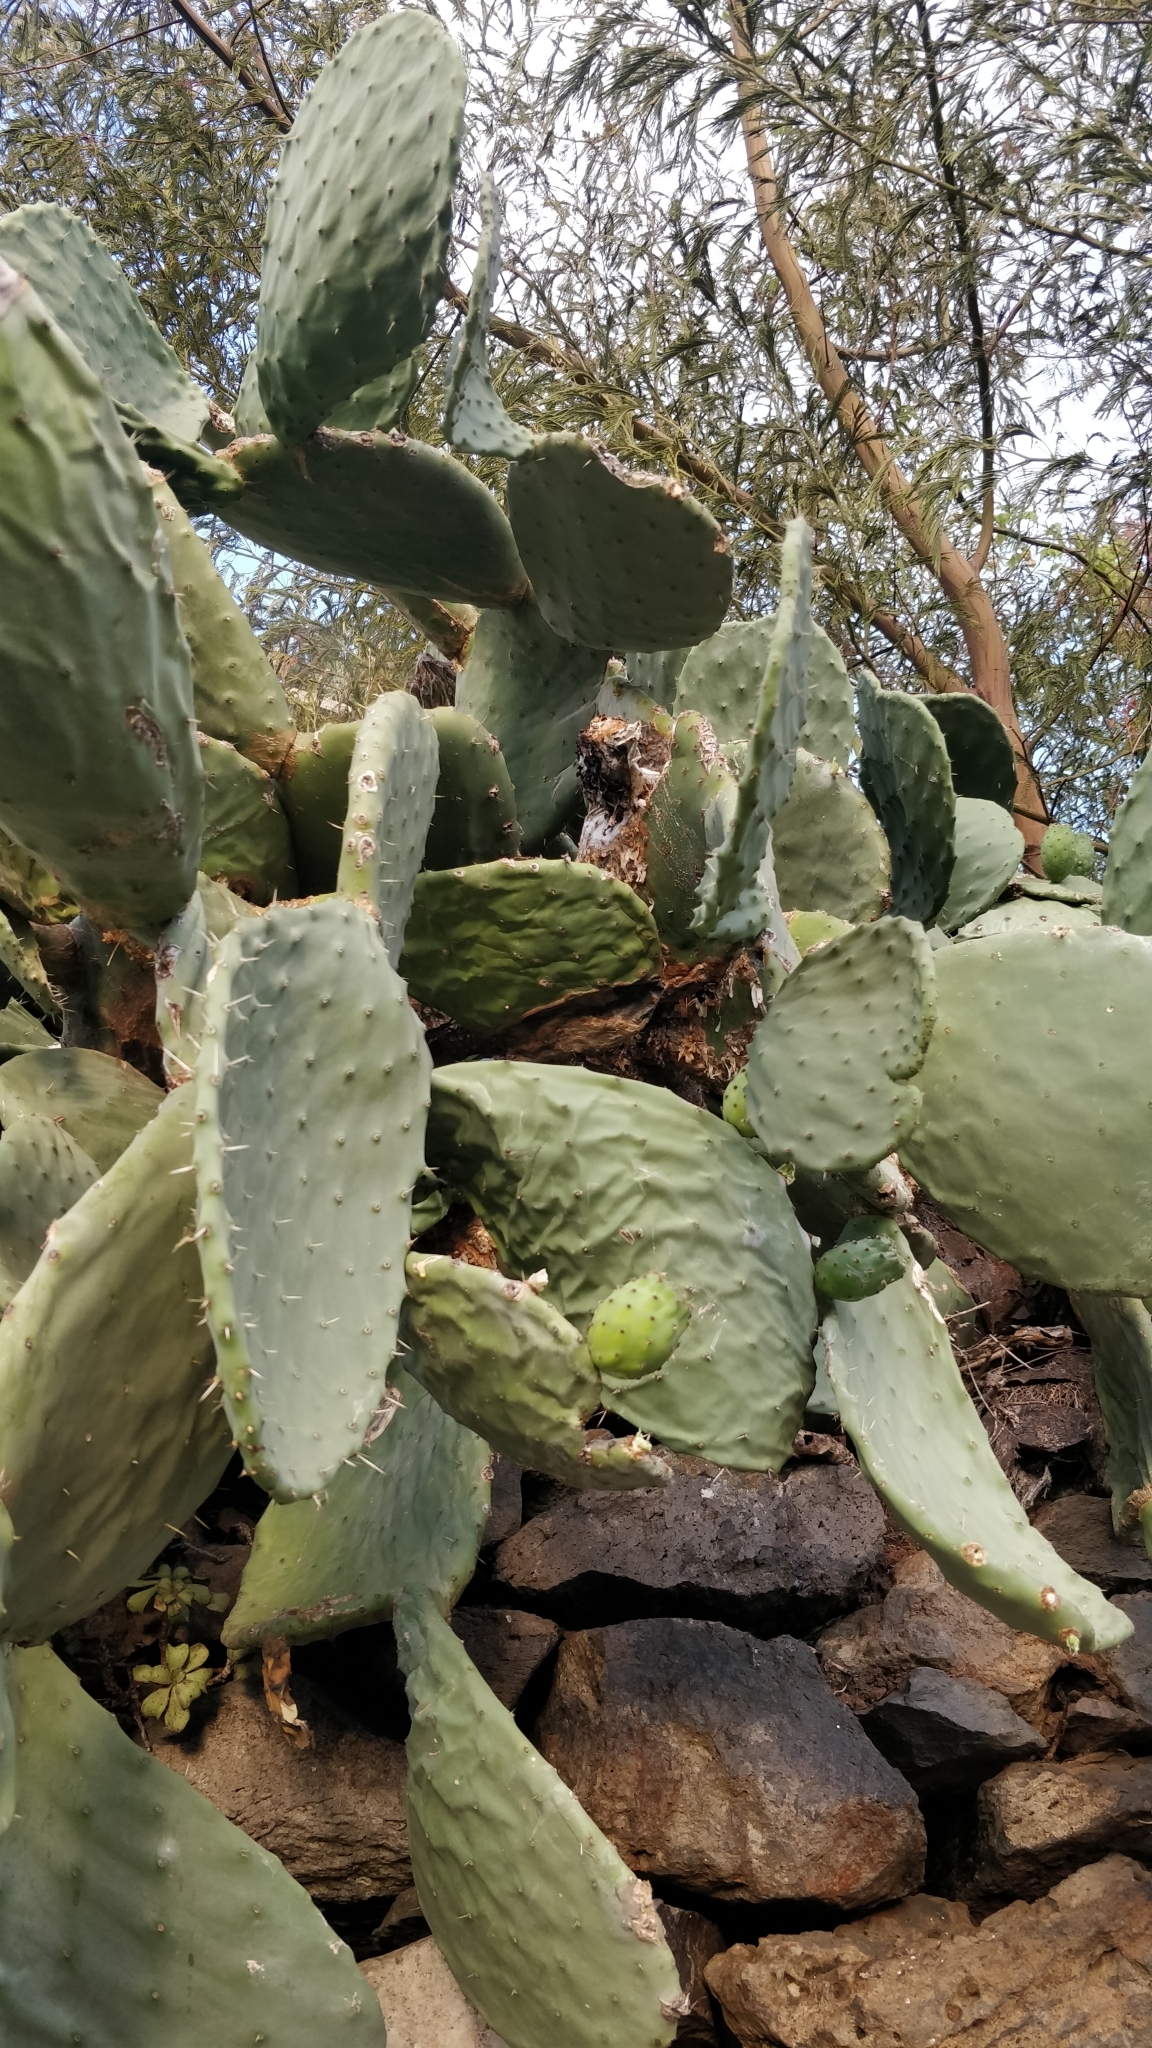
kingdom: Plantae
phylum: Tracheophyta
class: Magnoliopsida
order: Caryophyllales
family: Cactaceae
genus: Opuntia
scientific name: Opuntia ficus-indica
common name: Barbary fig
